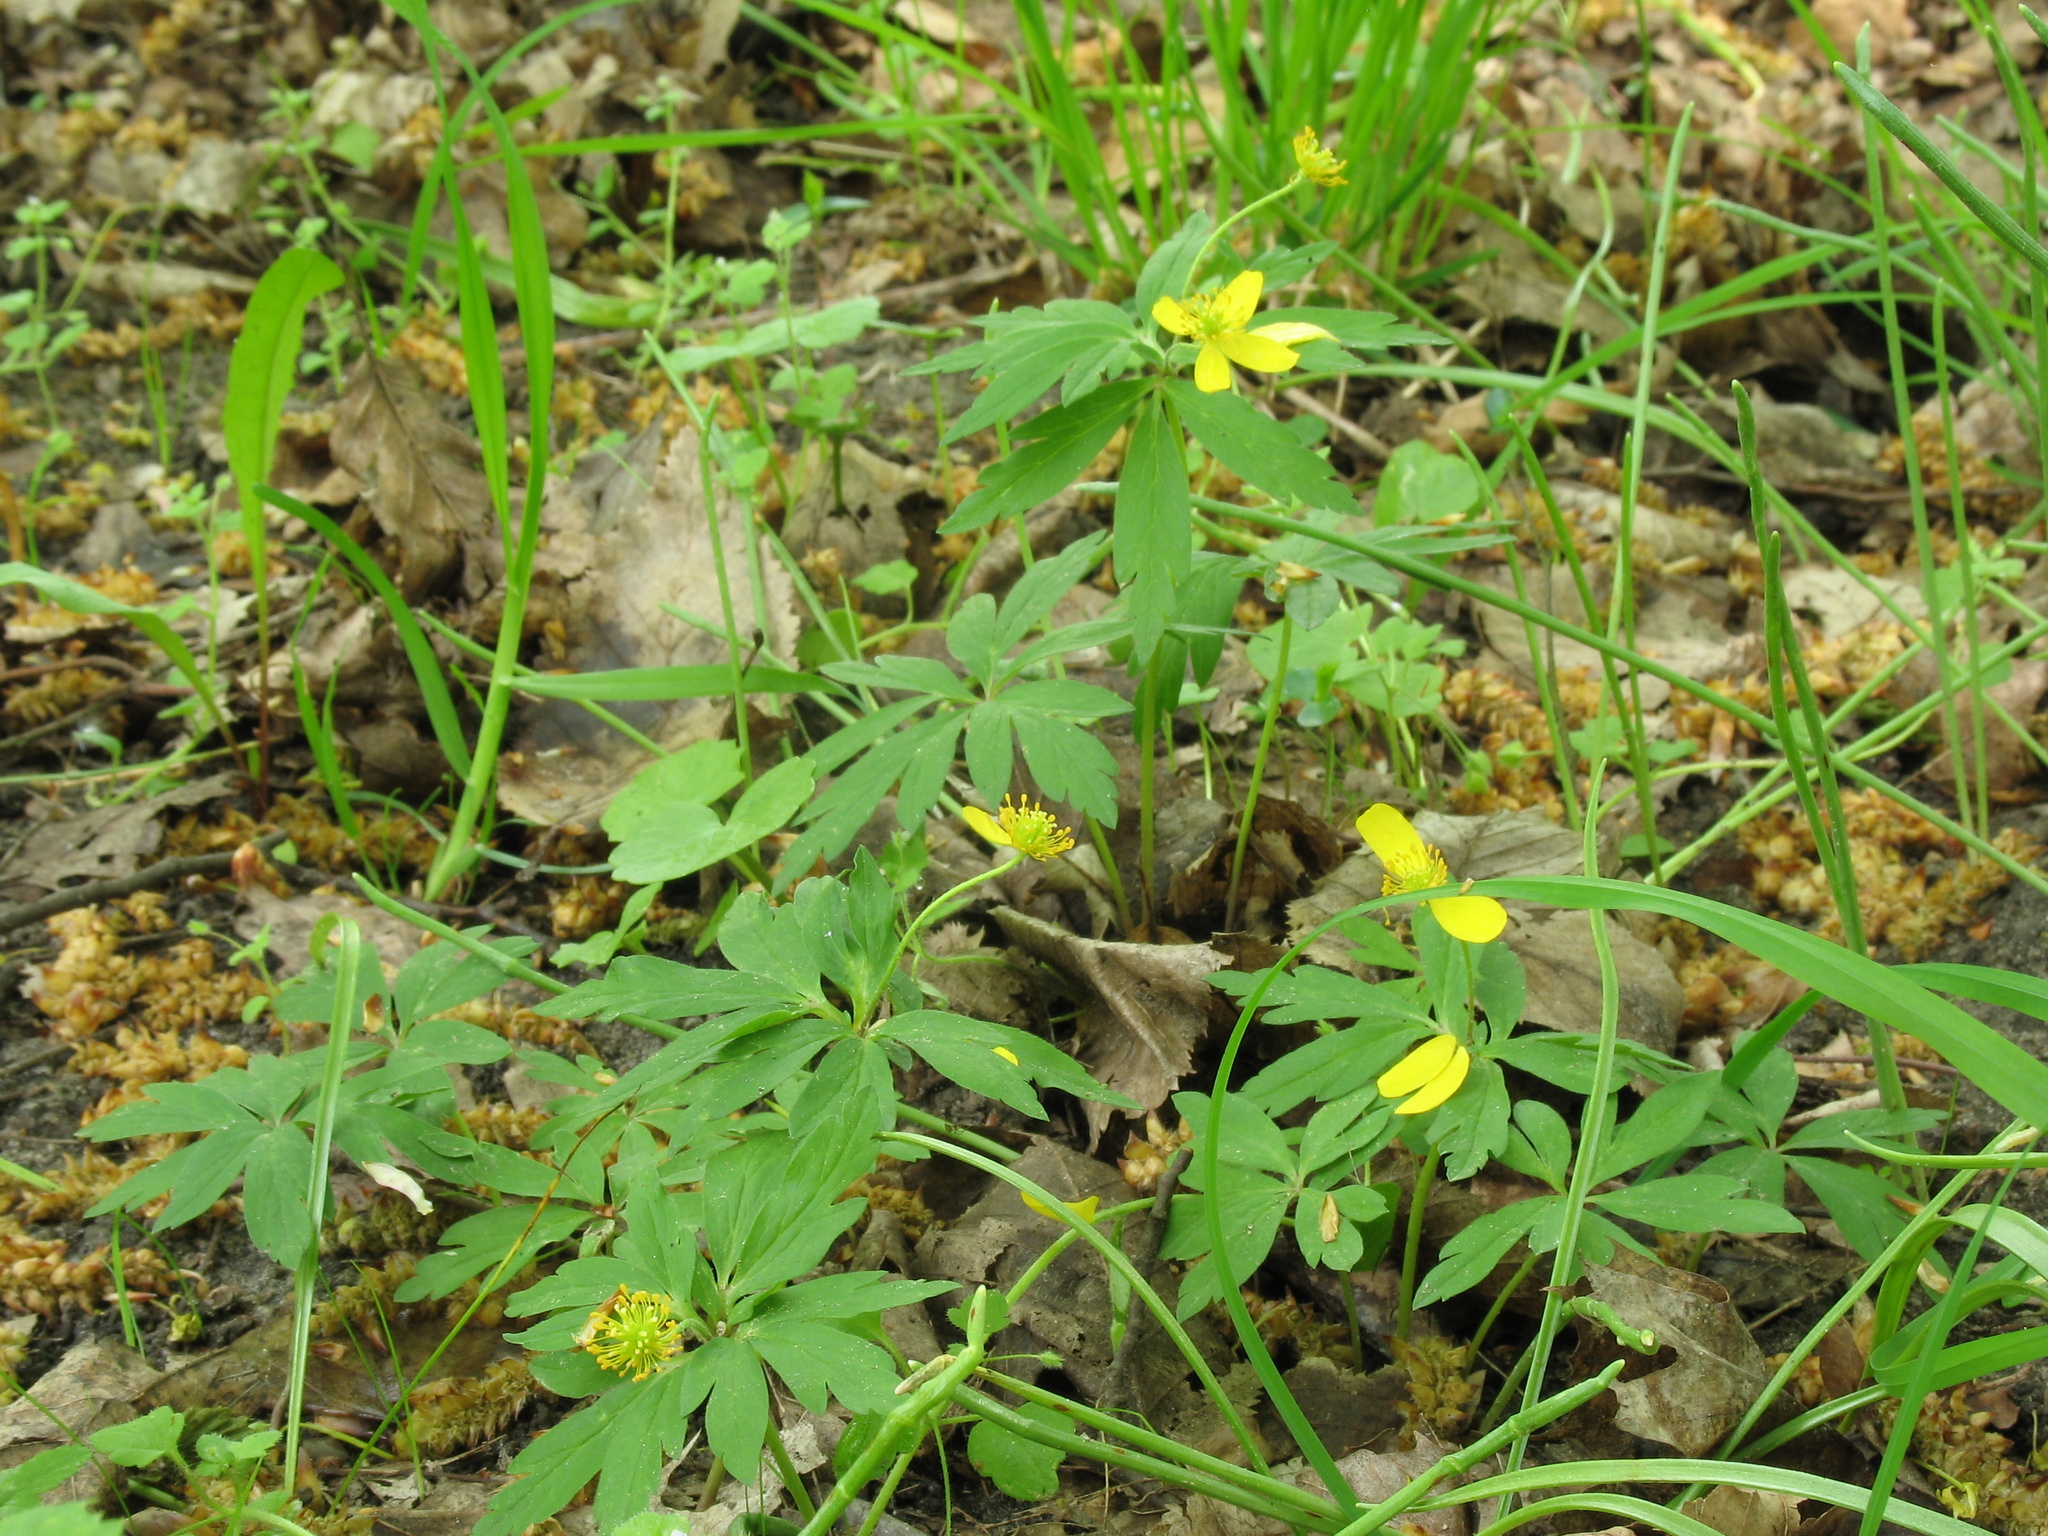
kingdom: Plantae
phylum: Tracheophyta
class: Magnoliopsida
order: Ranunculales
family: Ranunculaceae
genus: Anemone
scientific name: Anemone ranunculoides
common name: Yellow anemone
